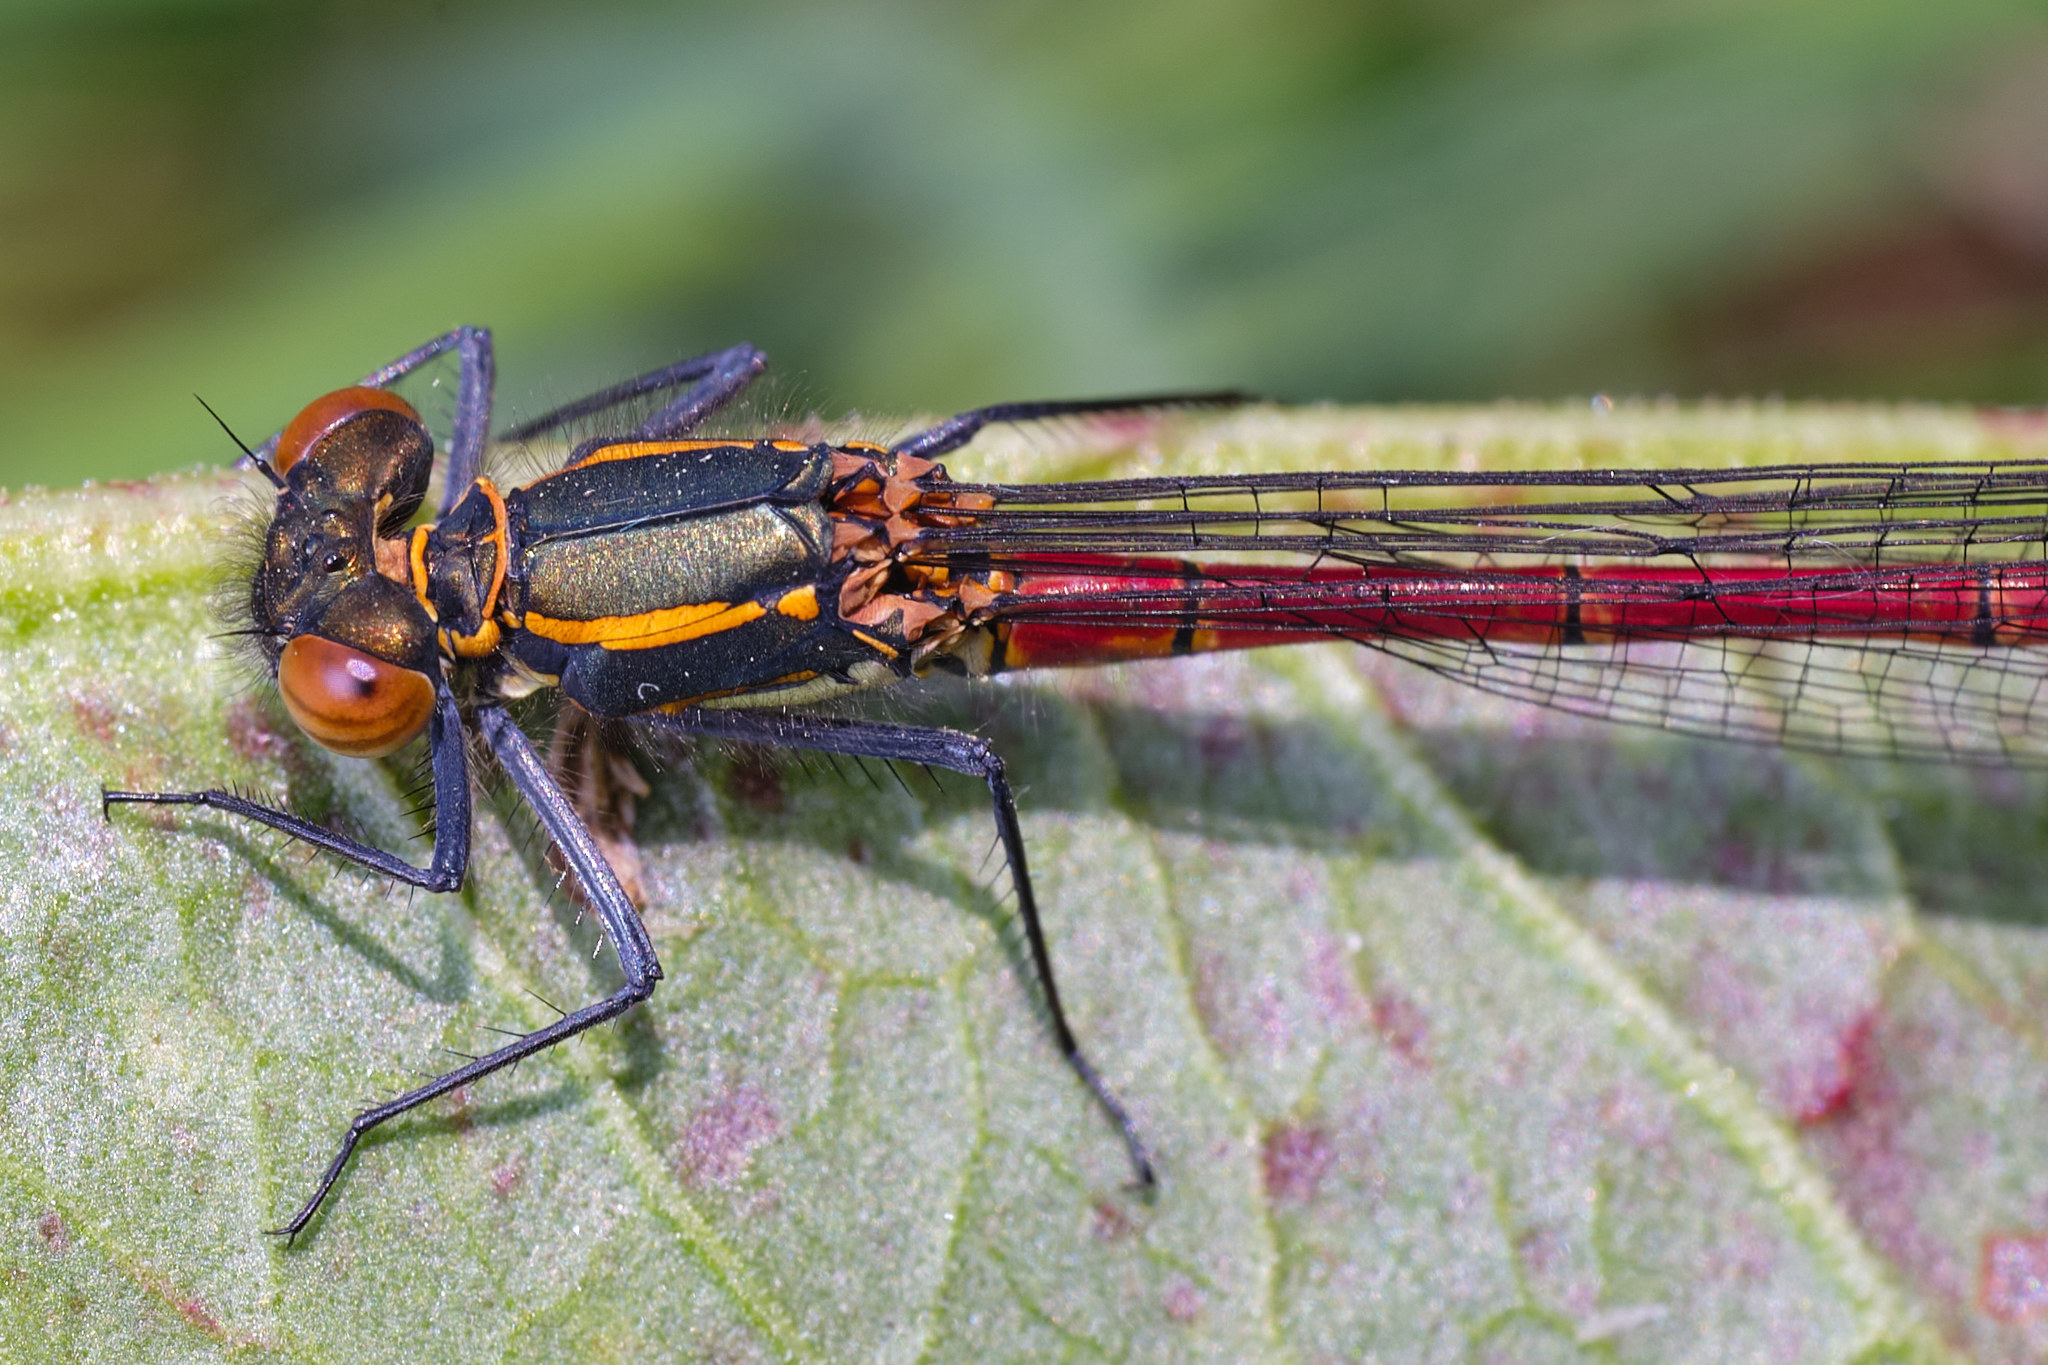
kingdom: Animalia
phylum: Arthropoda
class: Insecta
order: Odonata
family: Coenagrionidae
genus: Pyrrhosoma
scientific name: Pyrrhosoma nymphula
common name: Large red damsel
